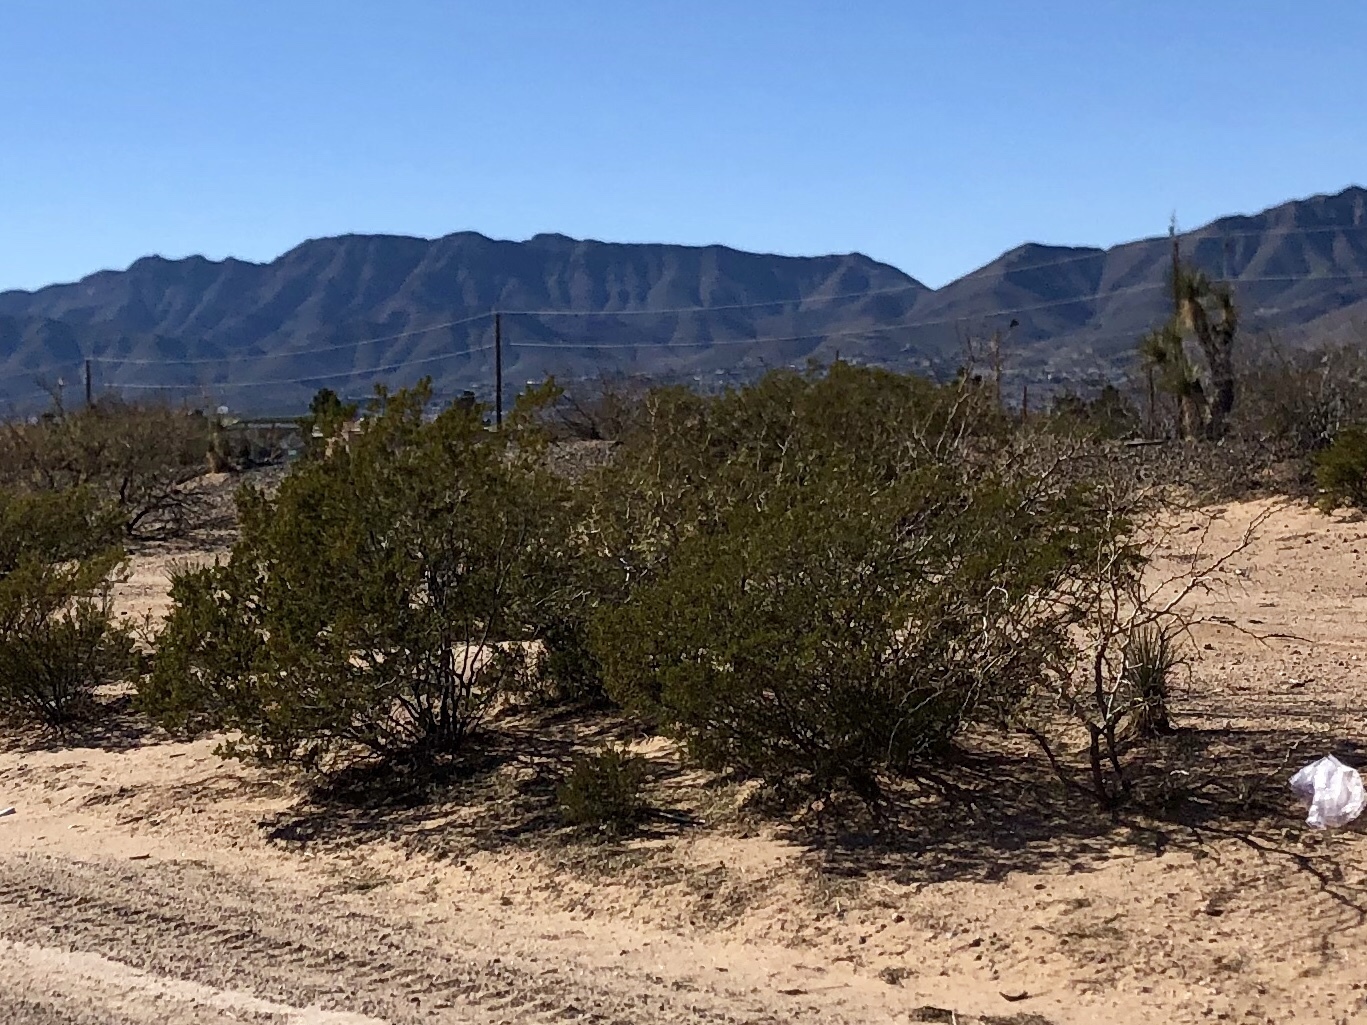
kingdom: Plantae
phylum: Tracheophyta
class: Magnoliopsida
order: Zygophyllales
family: Zygophyllaceae
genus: Larrea
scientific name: Larrea tridentata
